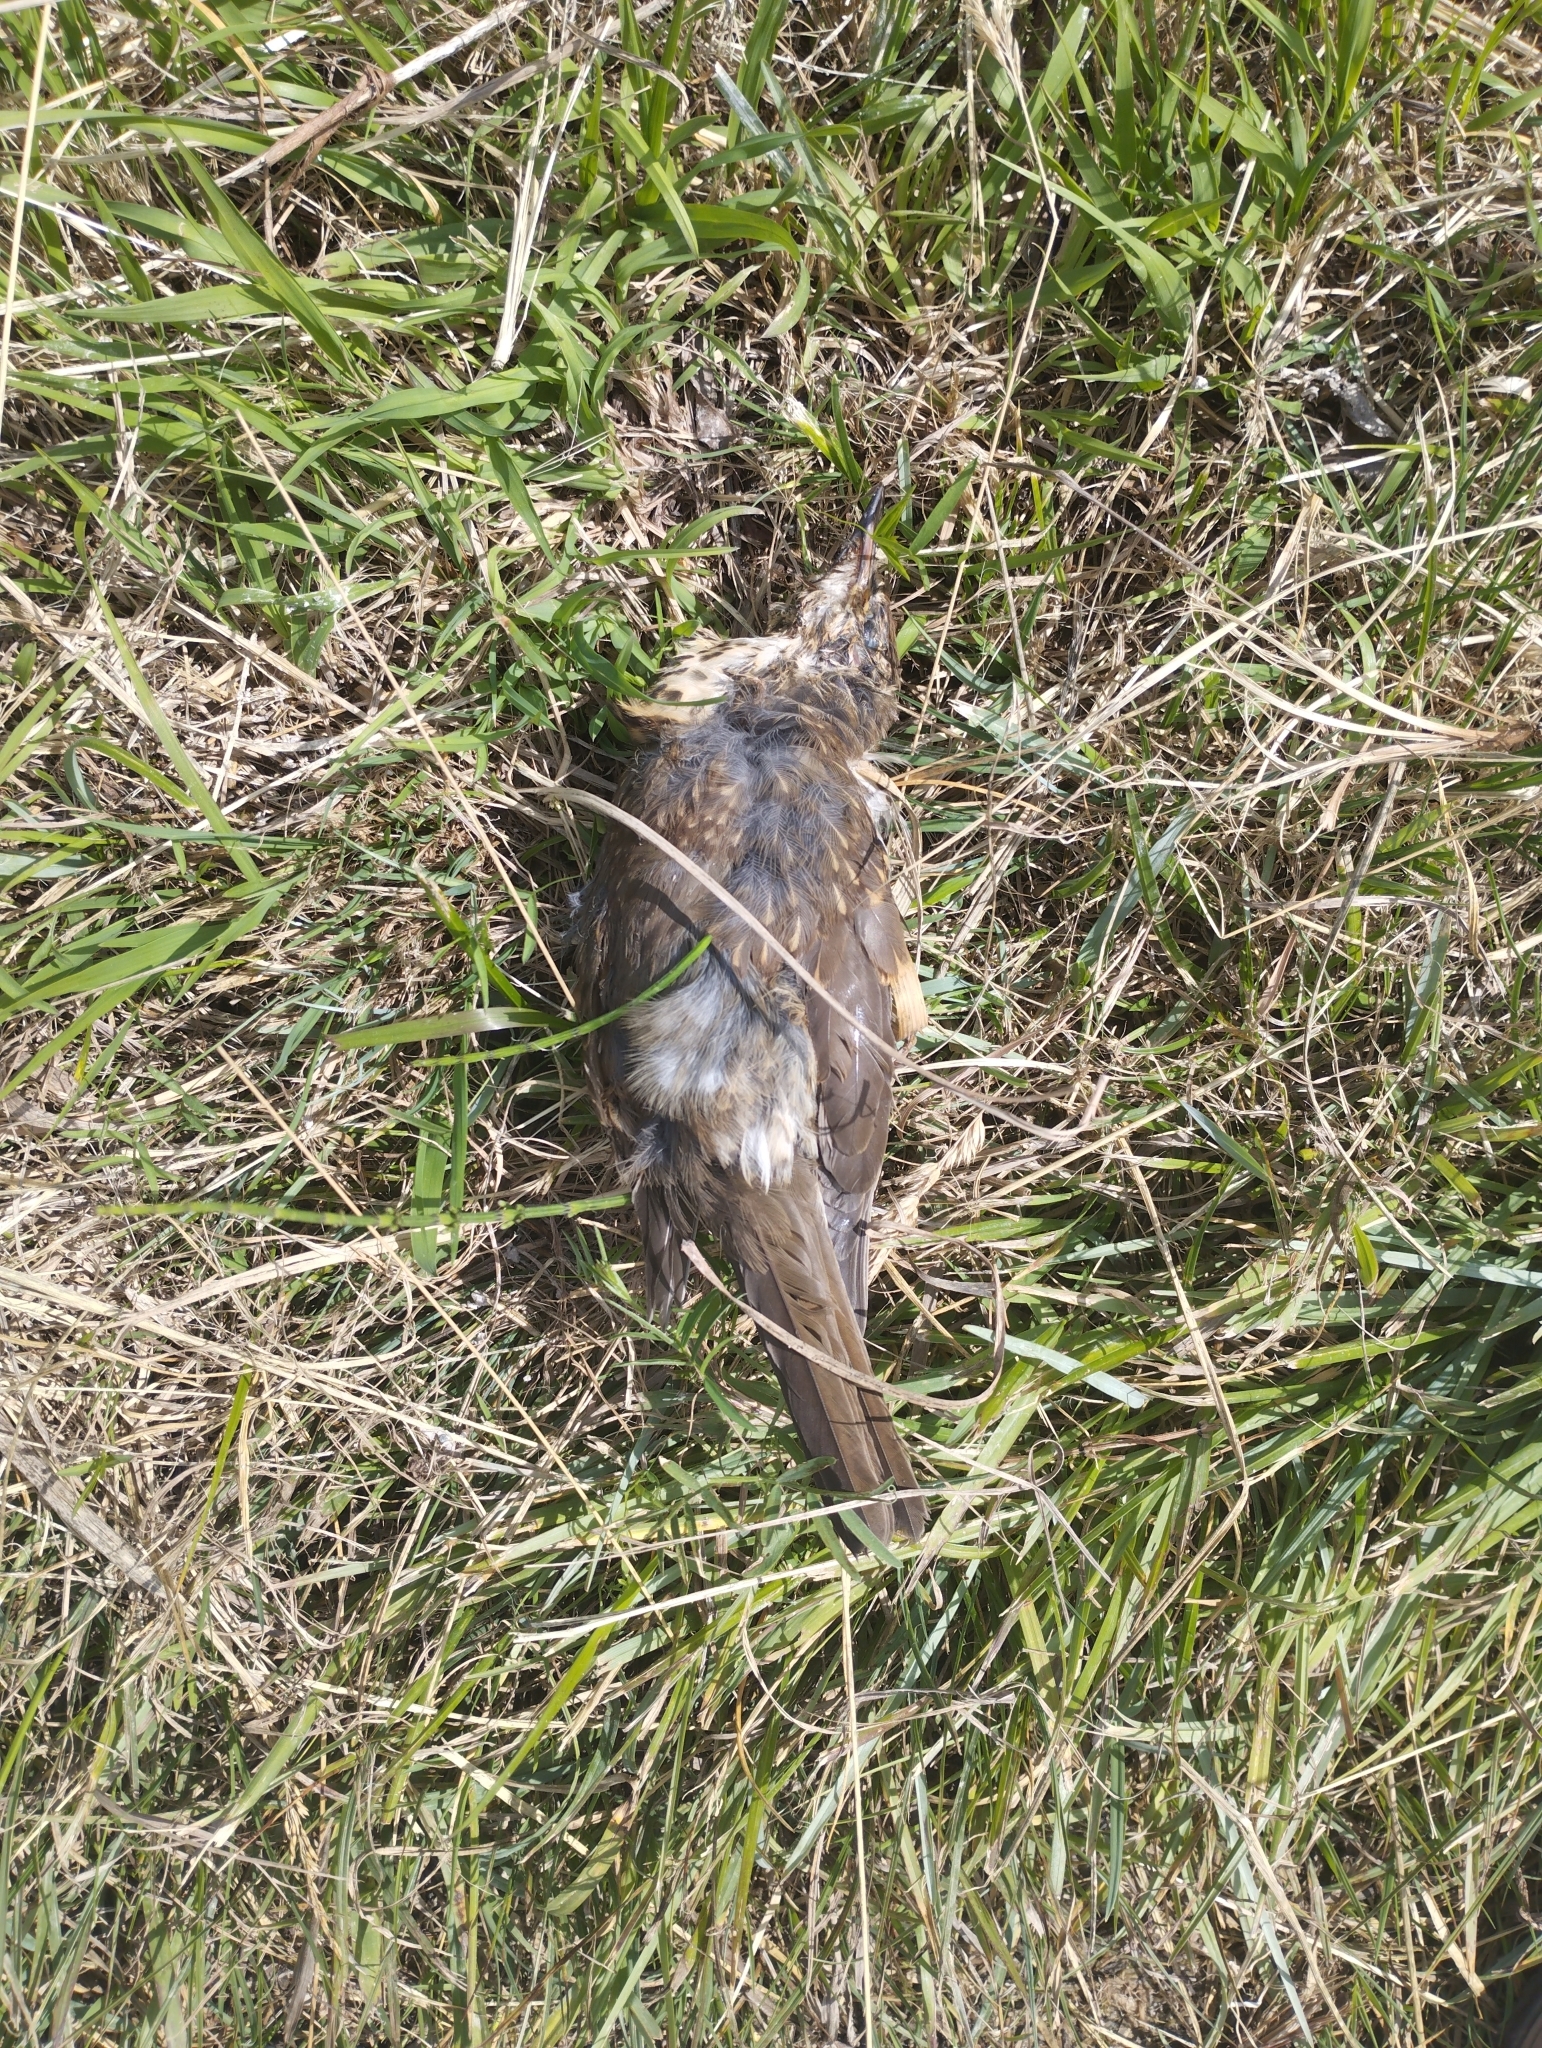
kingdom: Animalia
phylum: Chordata
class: Aves
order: Passeriformes
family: Turdidae
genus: Turdus
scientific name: Turdus philomelos
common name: Song thrush
